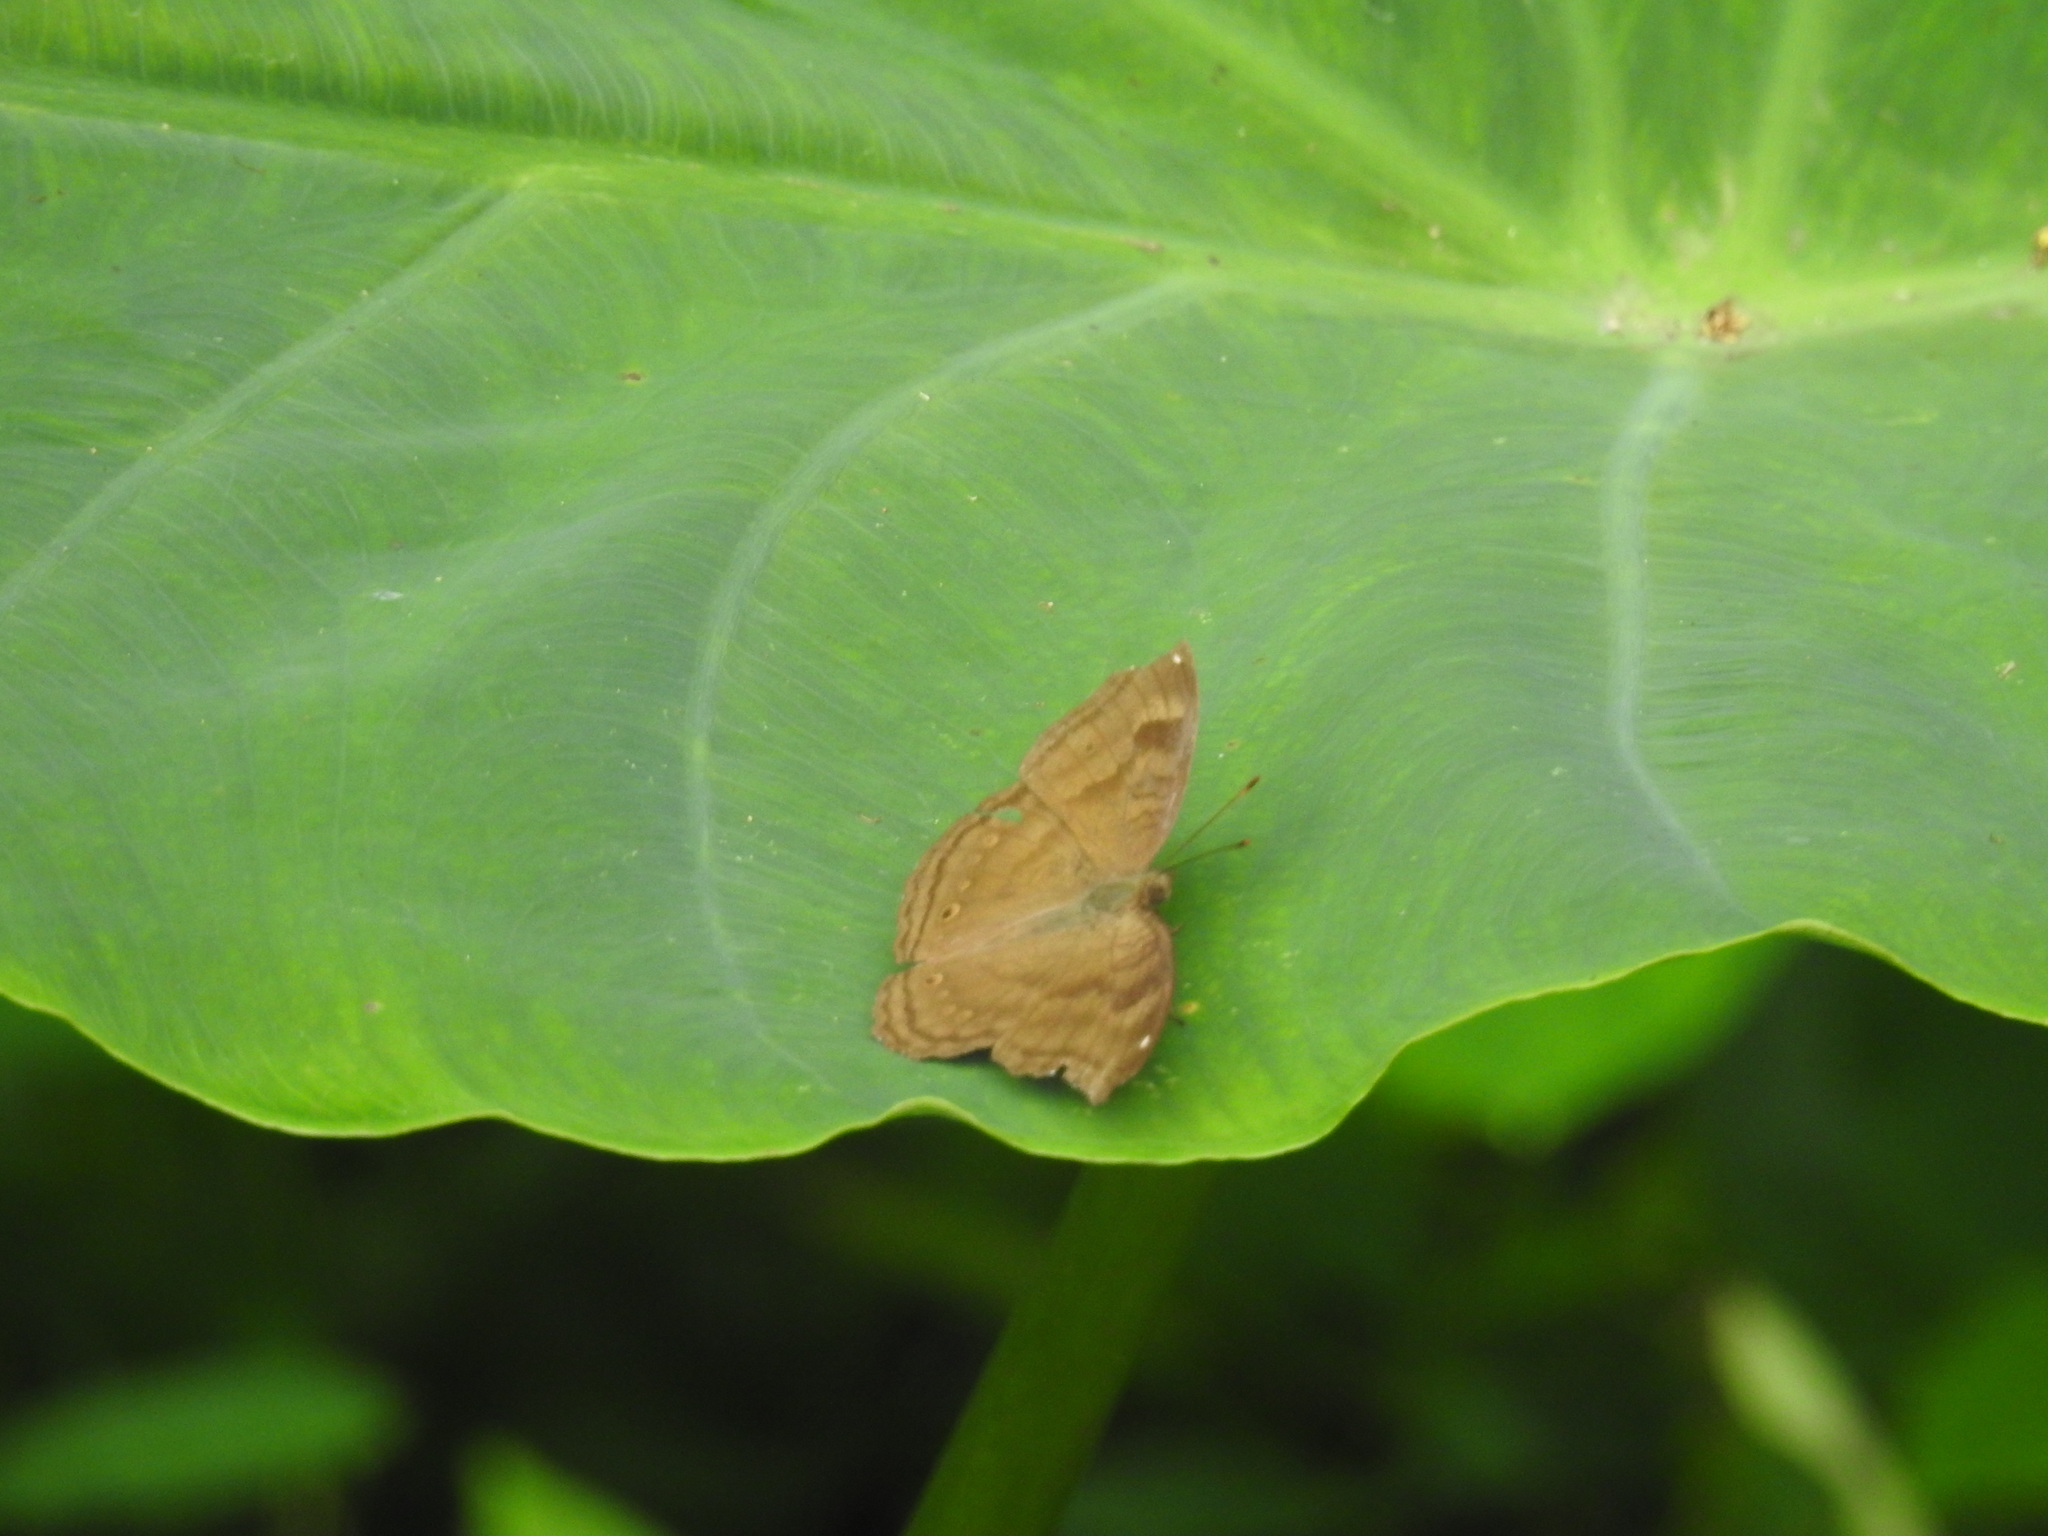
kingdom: Animalia
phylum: Arthropoda
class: Insecta
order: Lepidoptera
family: Nymphalidae
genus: Junonia
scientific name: Junonia iphita
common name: Chocolate pansy
